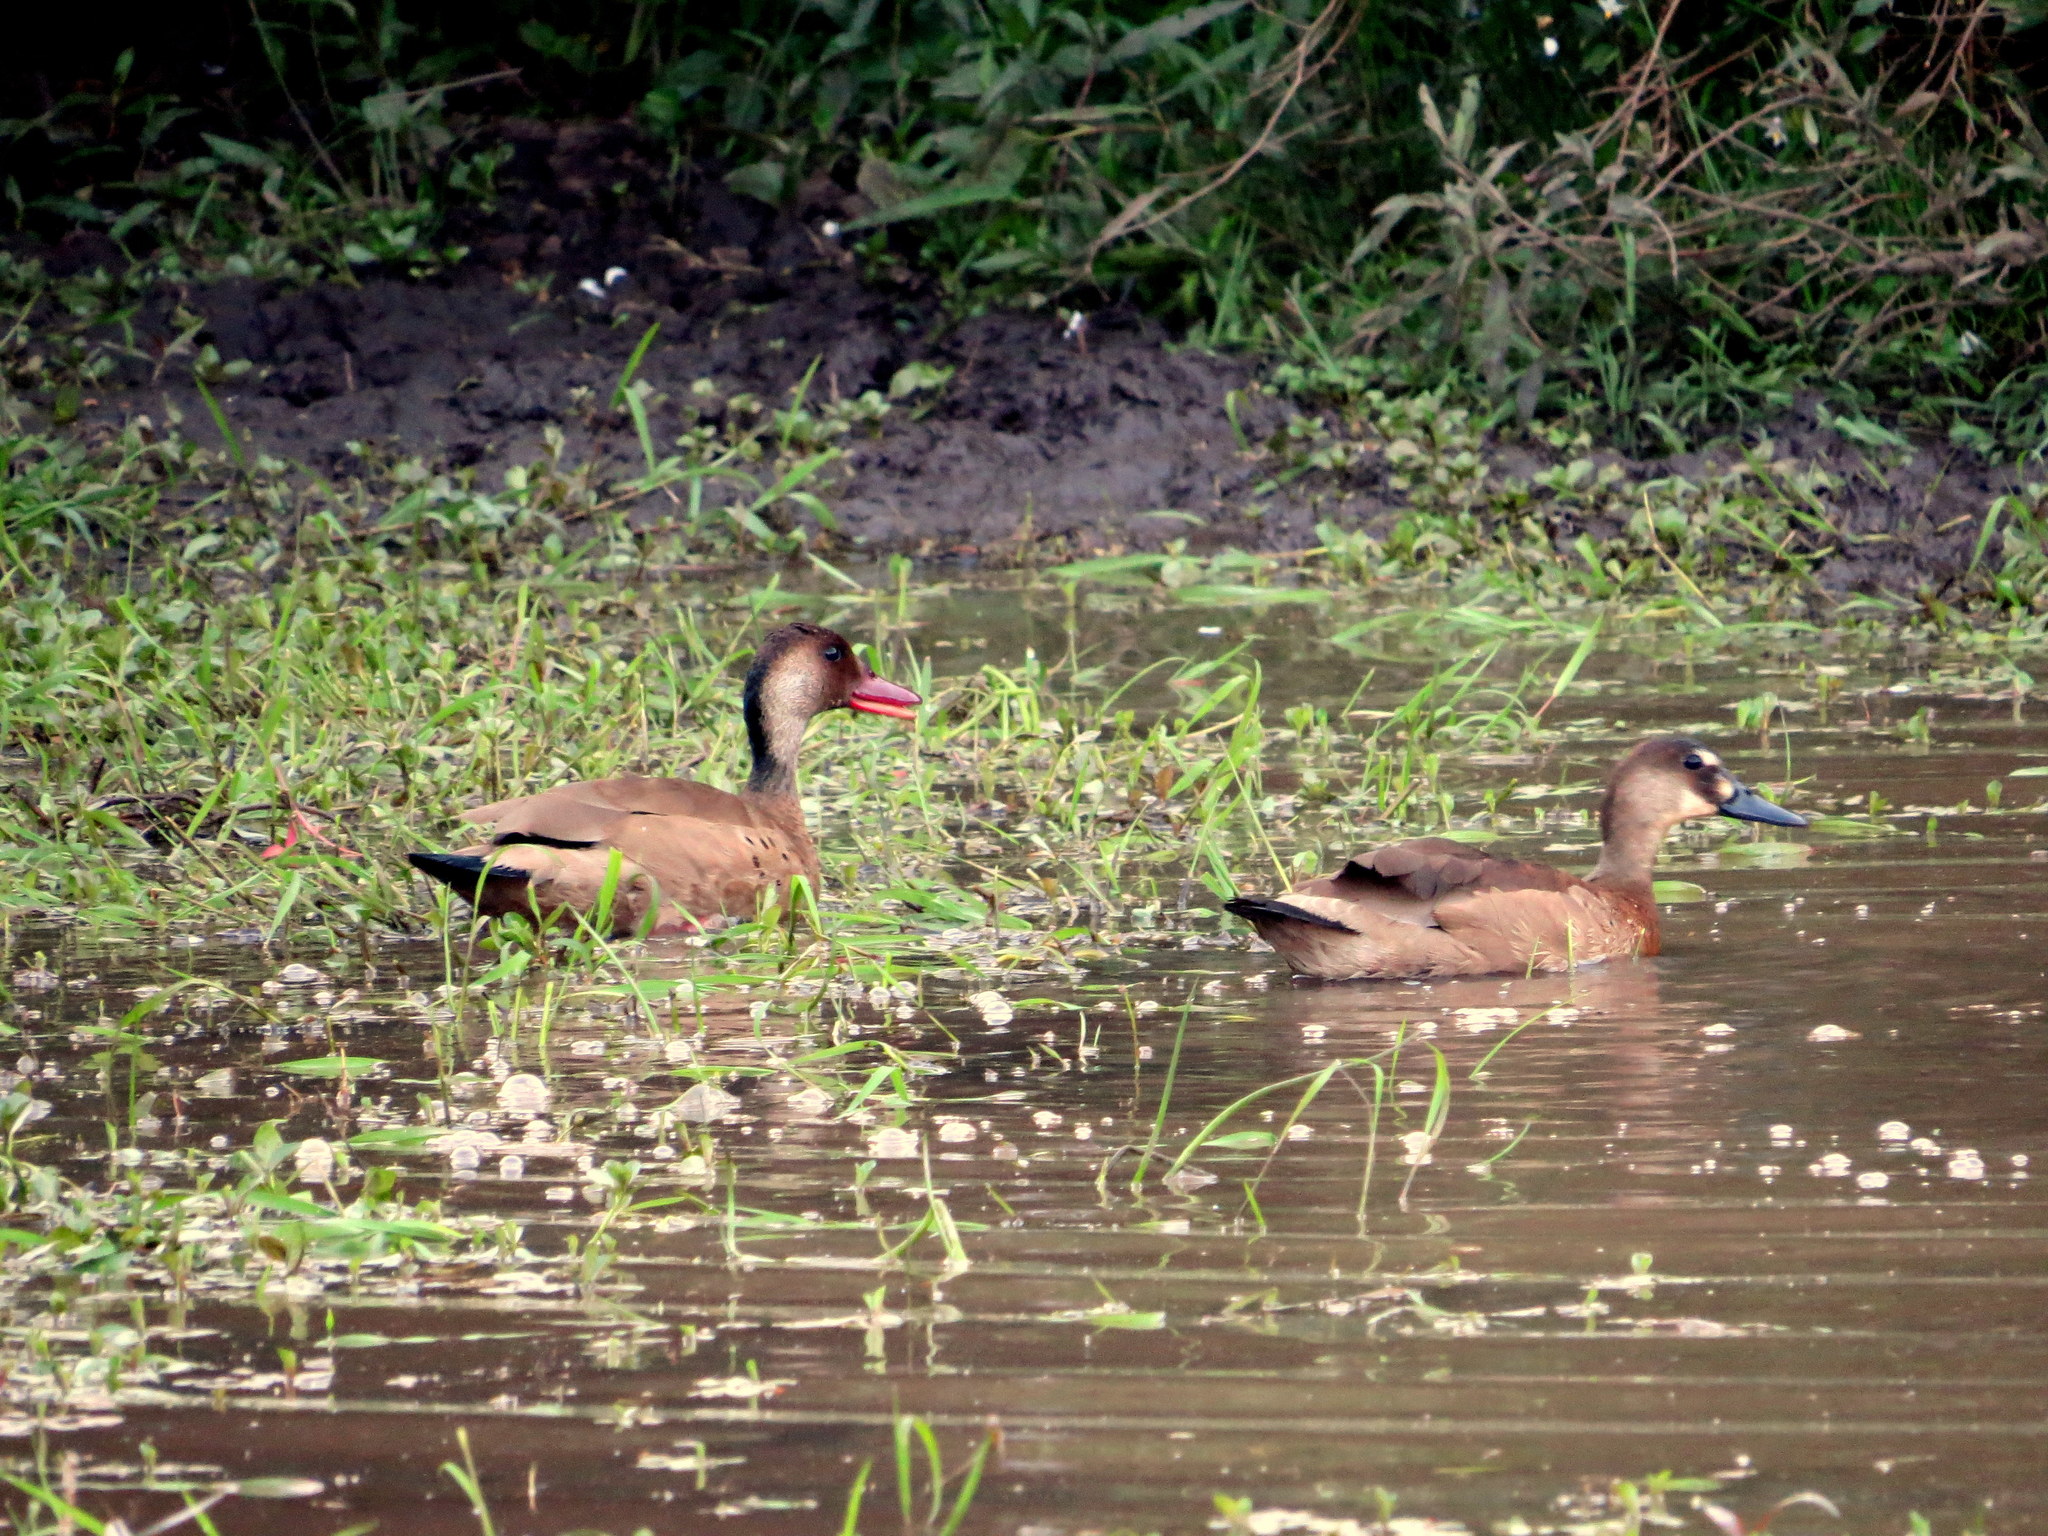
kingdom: Animalia
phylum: Chordata
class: Aves
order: Anseriformes
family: Anatidae
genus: Amazonetta
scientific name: Amazonetta brasiliensis
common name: Brazilian teal
